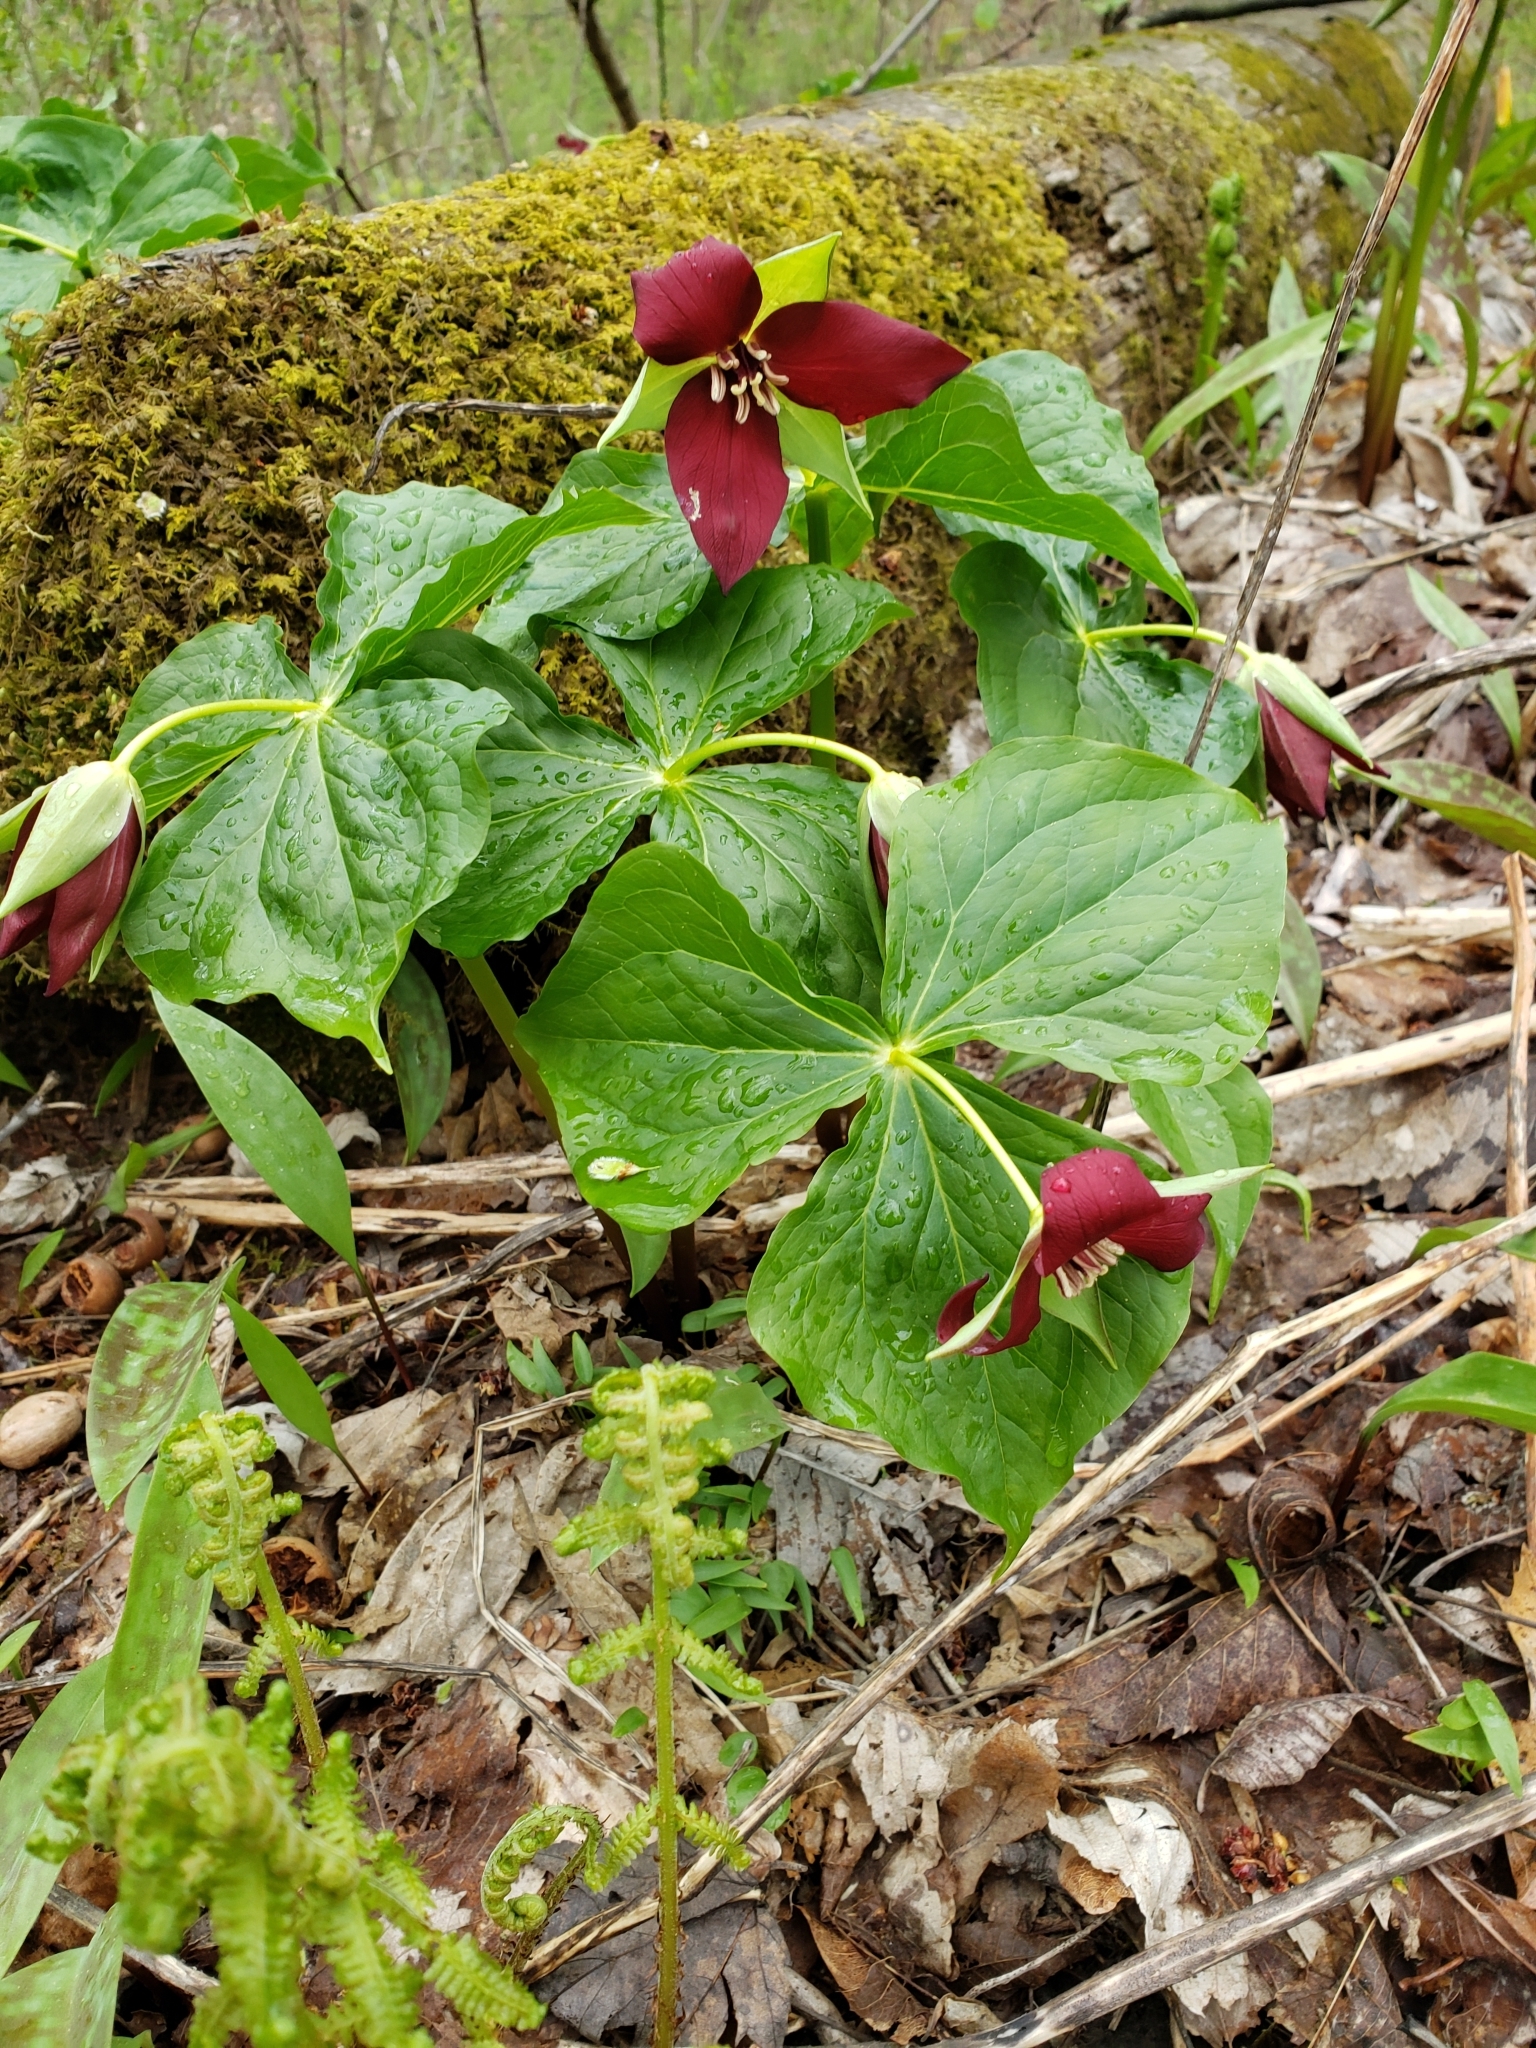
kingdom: Plantae
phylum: Tracheophyta
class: Liliopsida
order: Liliales
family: Melanthiaceae
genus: Trillium
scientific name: Trillium erectum
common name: Purple trillium
